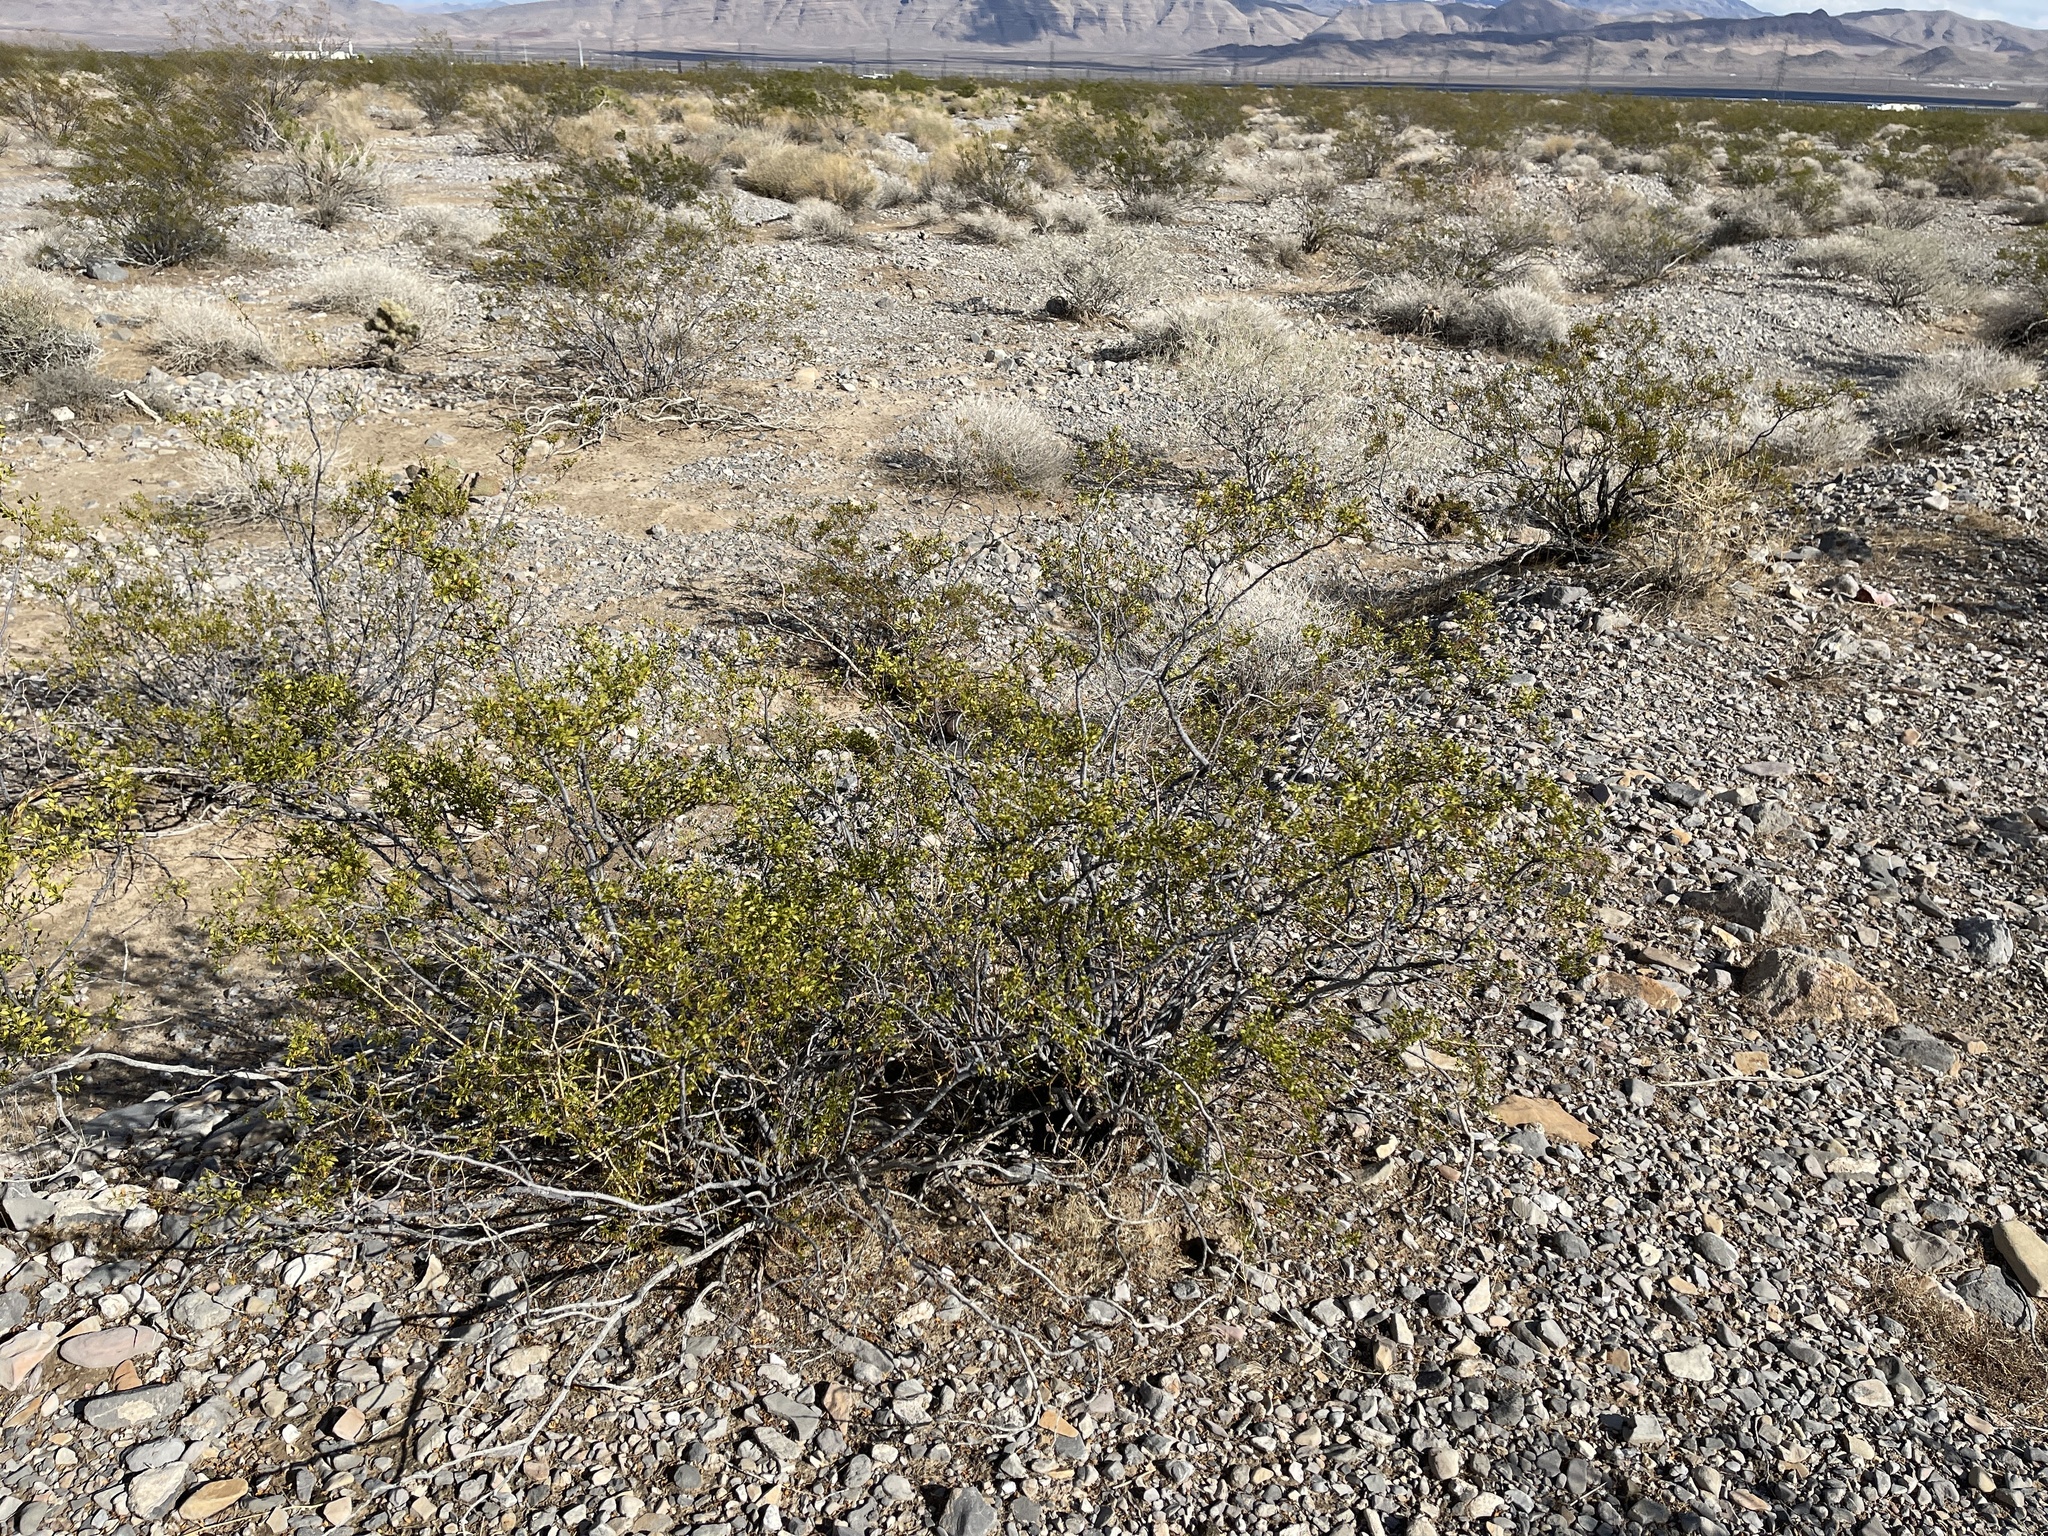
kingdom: Plantae
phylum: Tracheophyta
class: Magnoliopsida
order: Zygophyllales
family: Zygophyllaceae
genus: Larrea
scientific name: Larrea tridentata
